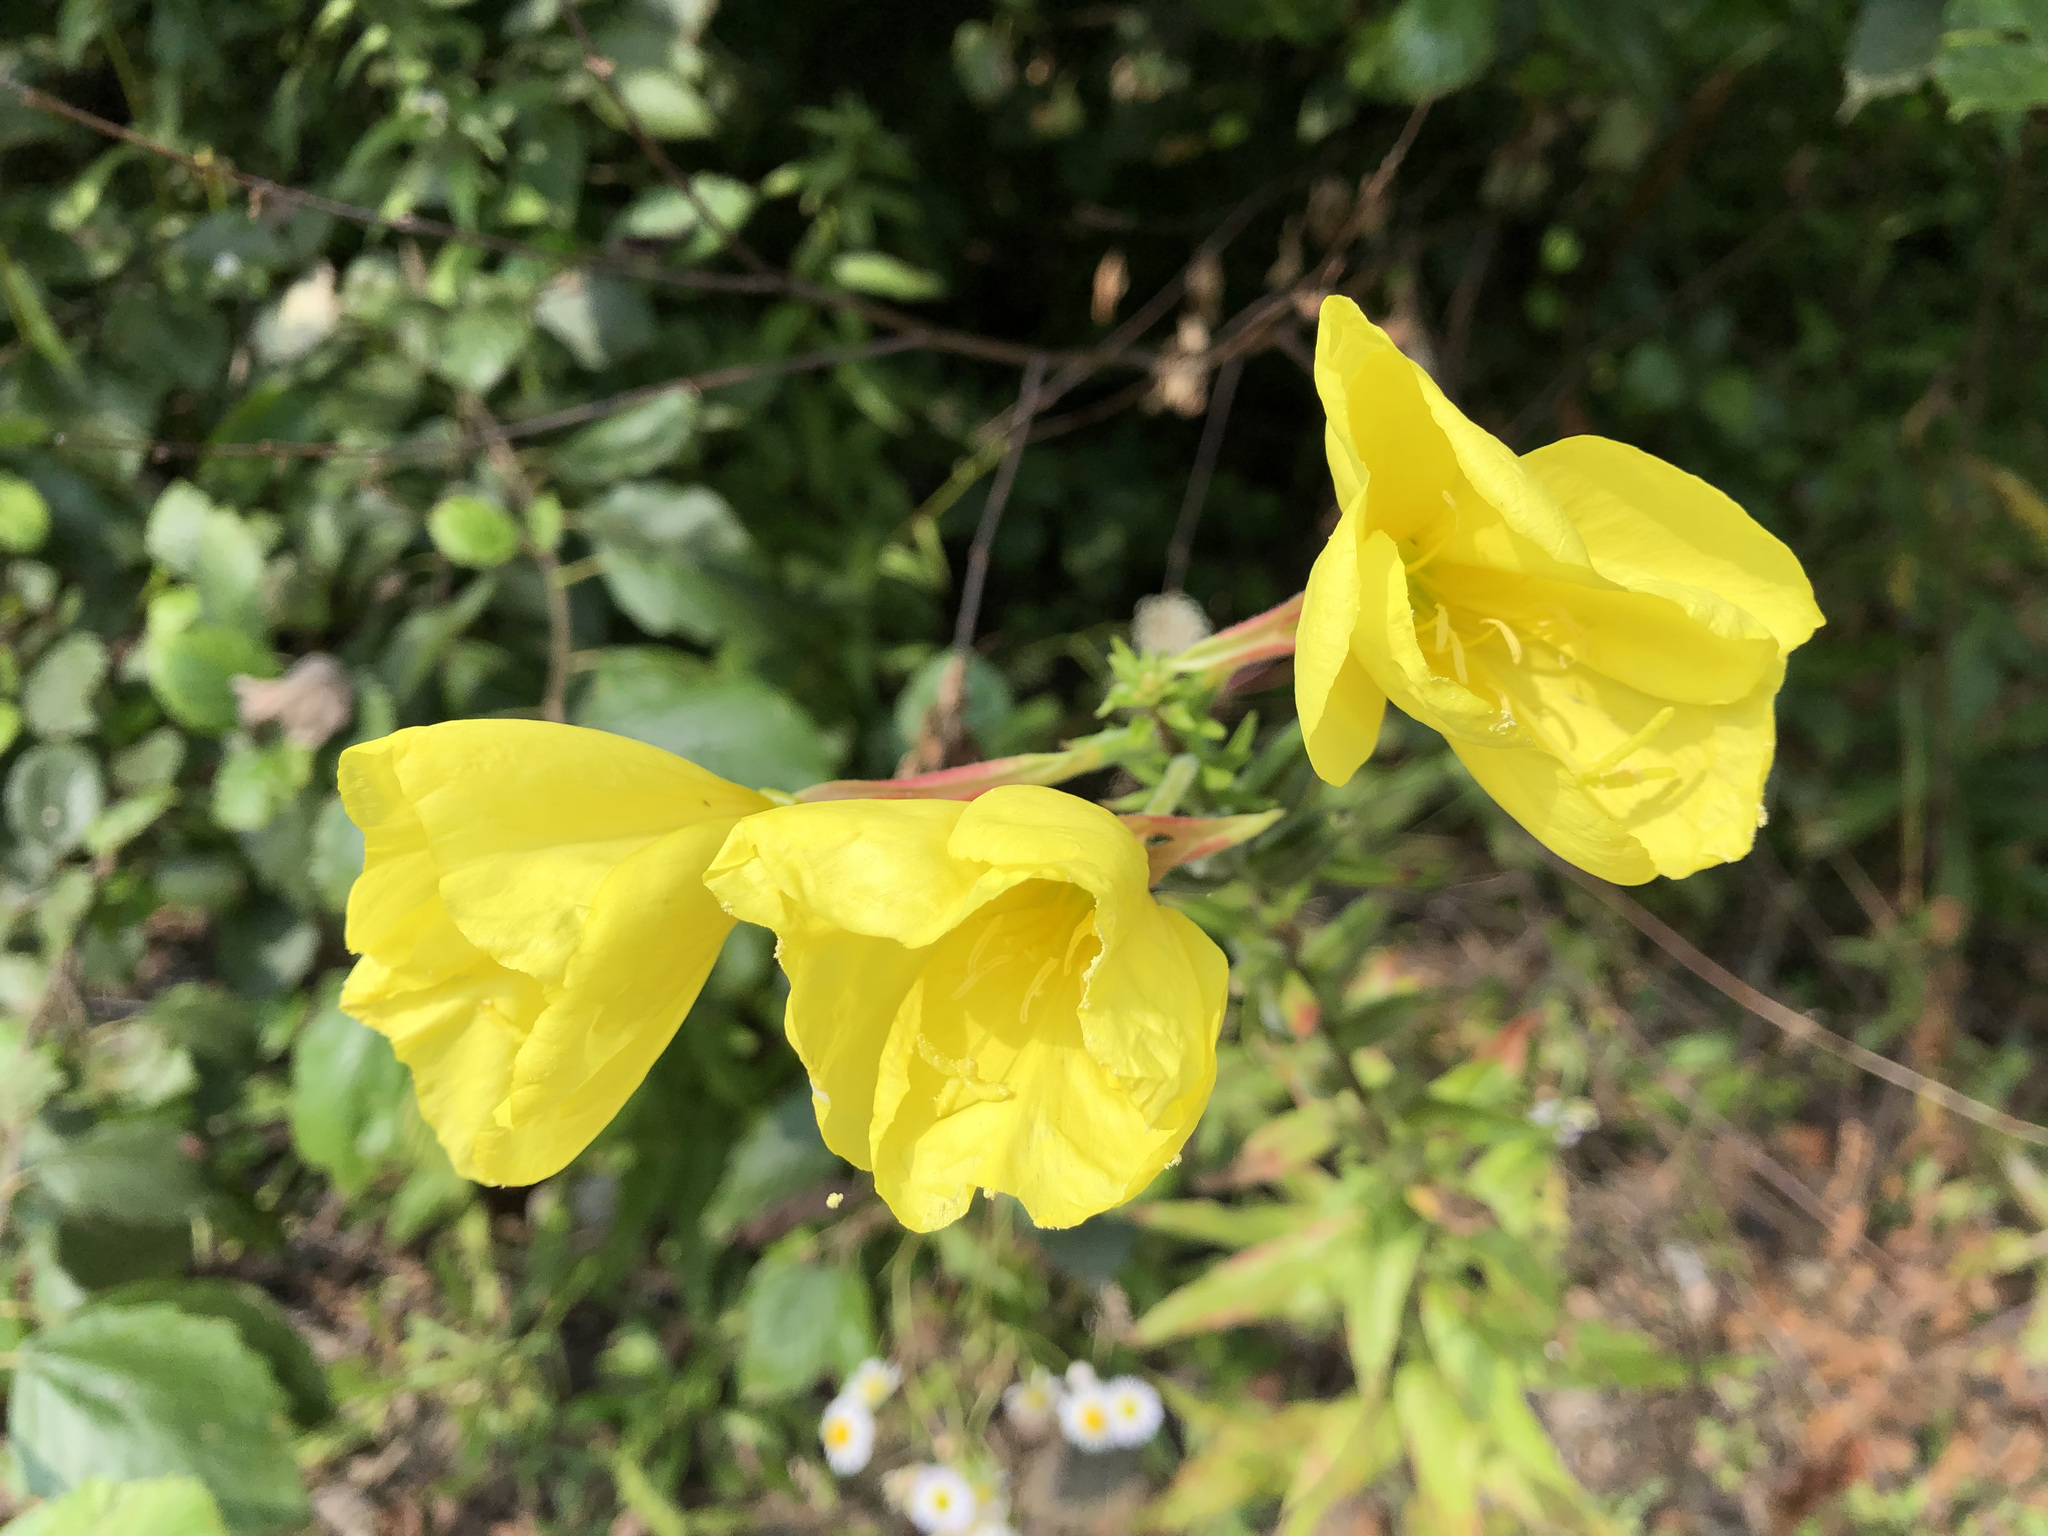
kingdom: Plantae
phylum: Tracheophyta
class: Magnoliopsida
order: Myrtales
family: Onagraceae
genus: Oenothera
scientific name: Oenothera glazioviana
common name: Large-flowered evening-primrose
